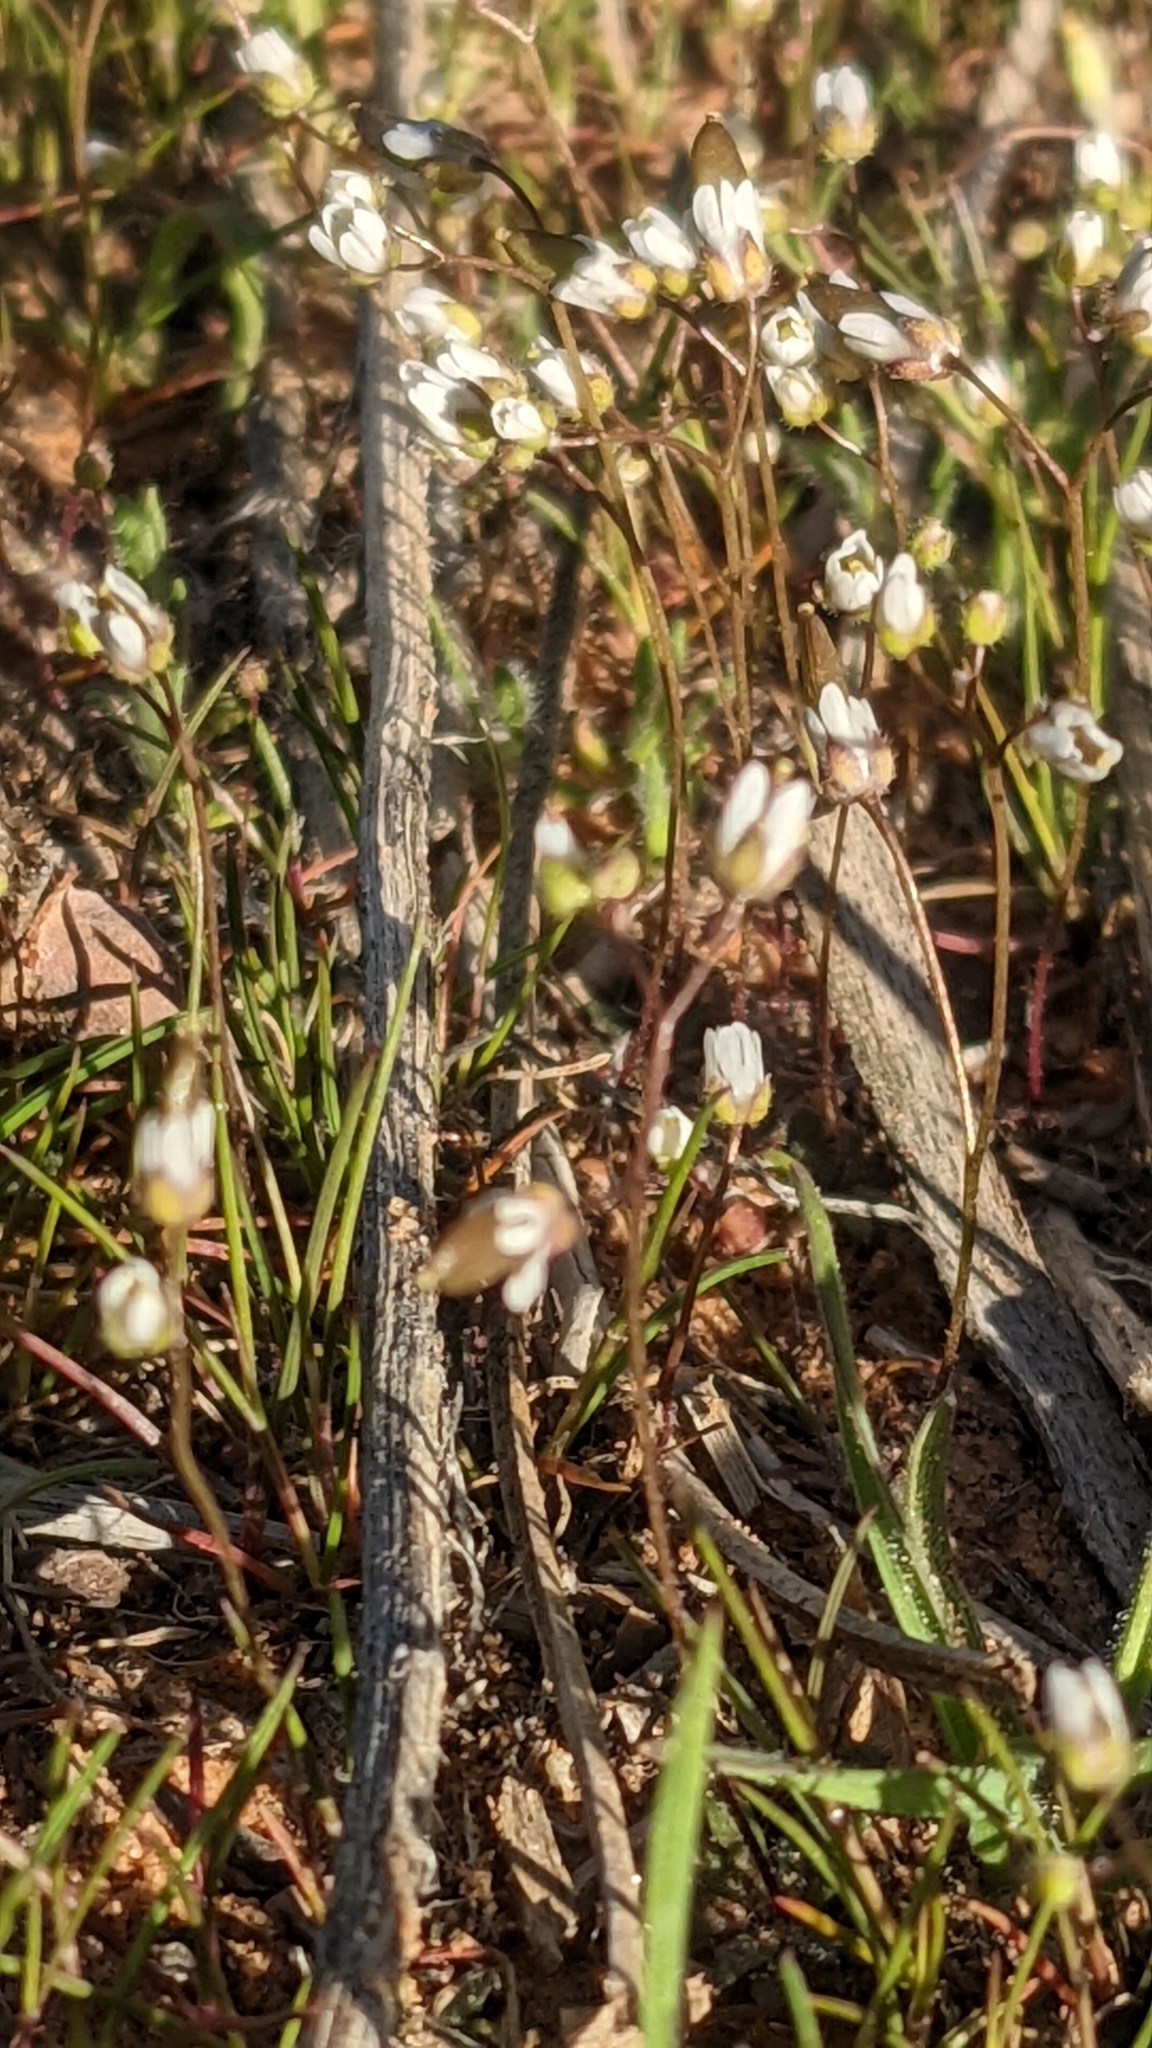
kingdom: Plantae
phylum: Tracheophyta
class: Magnoliopsida
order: Brassicales
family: Brassicaceae
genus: Draba
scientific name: Draba verna
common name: Spring draba
